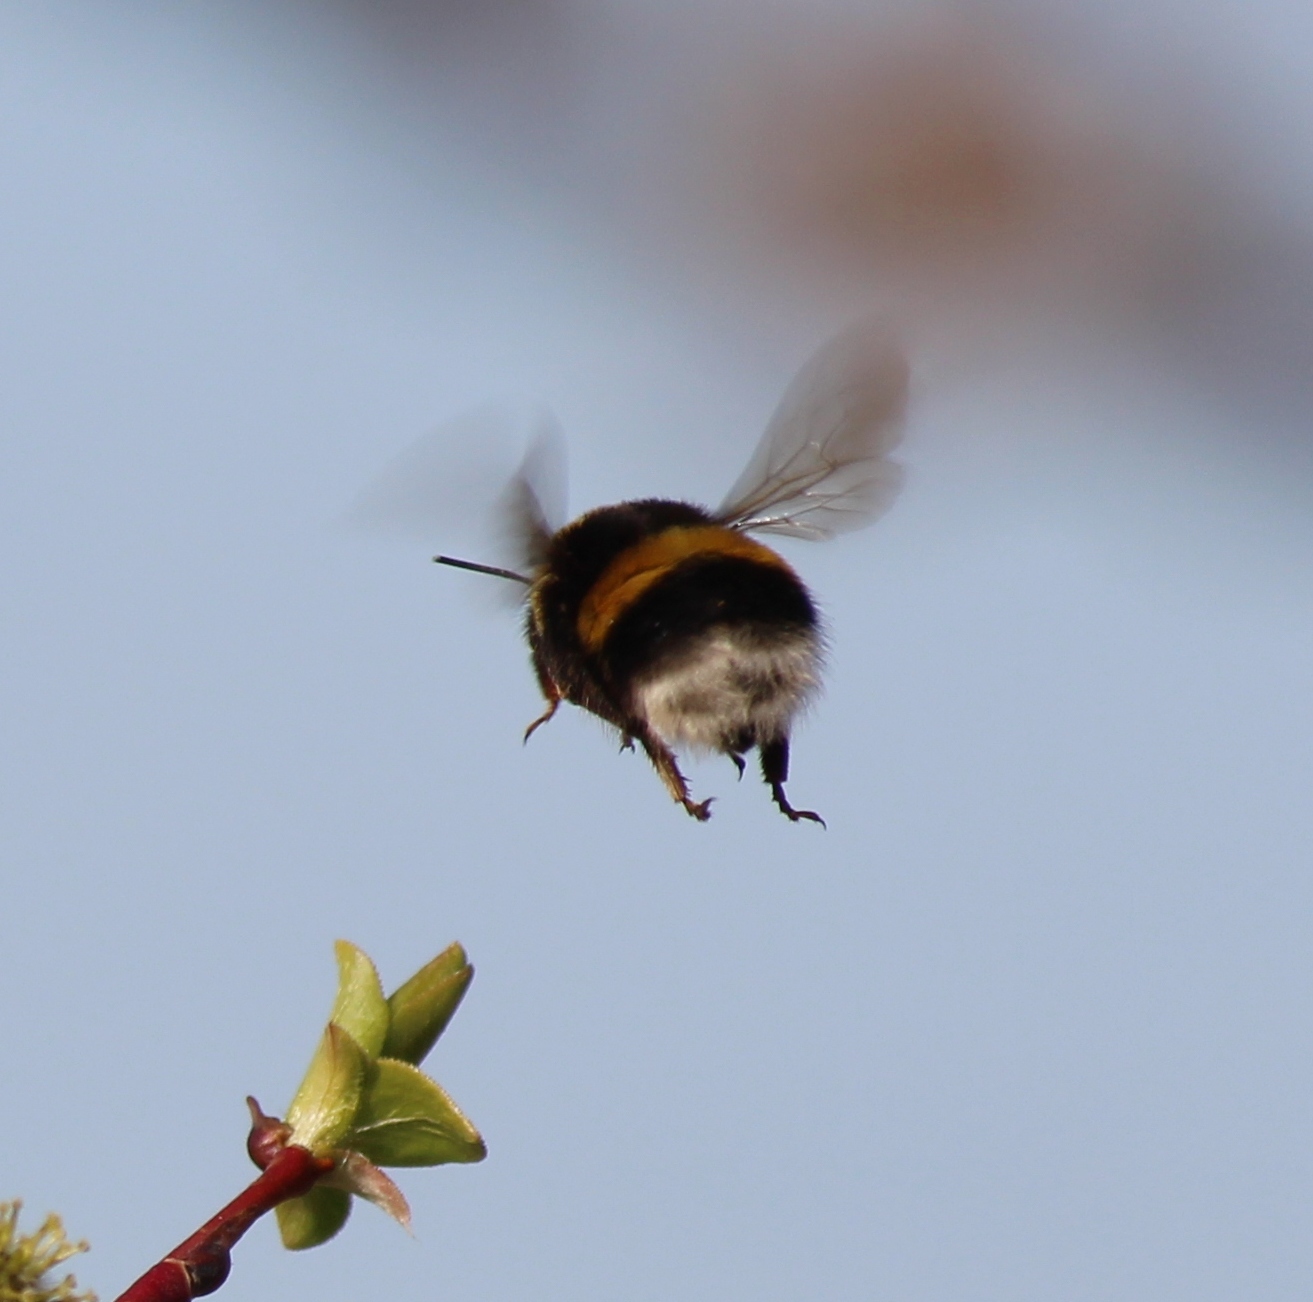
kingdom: Animalia
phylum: Arthropoda
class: Insecta
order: Hymenoptera
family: Apidae
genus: Bombus
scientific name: Bombus
